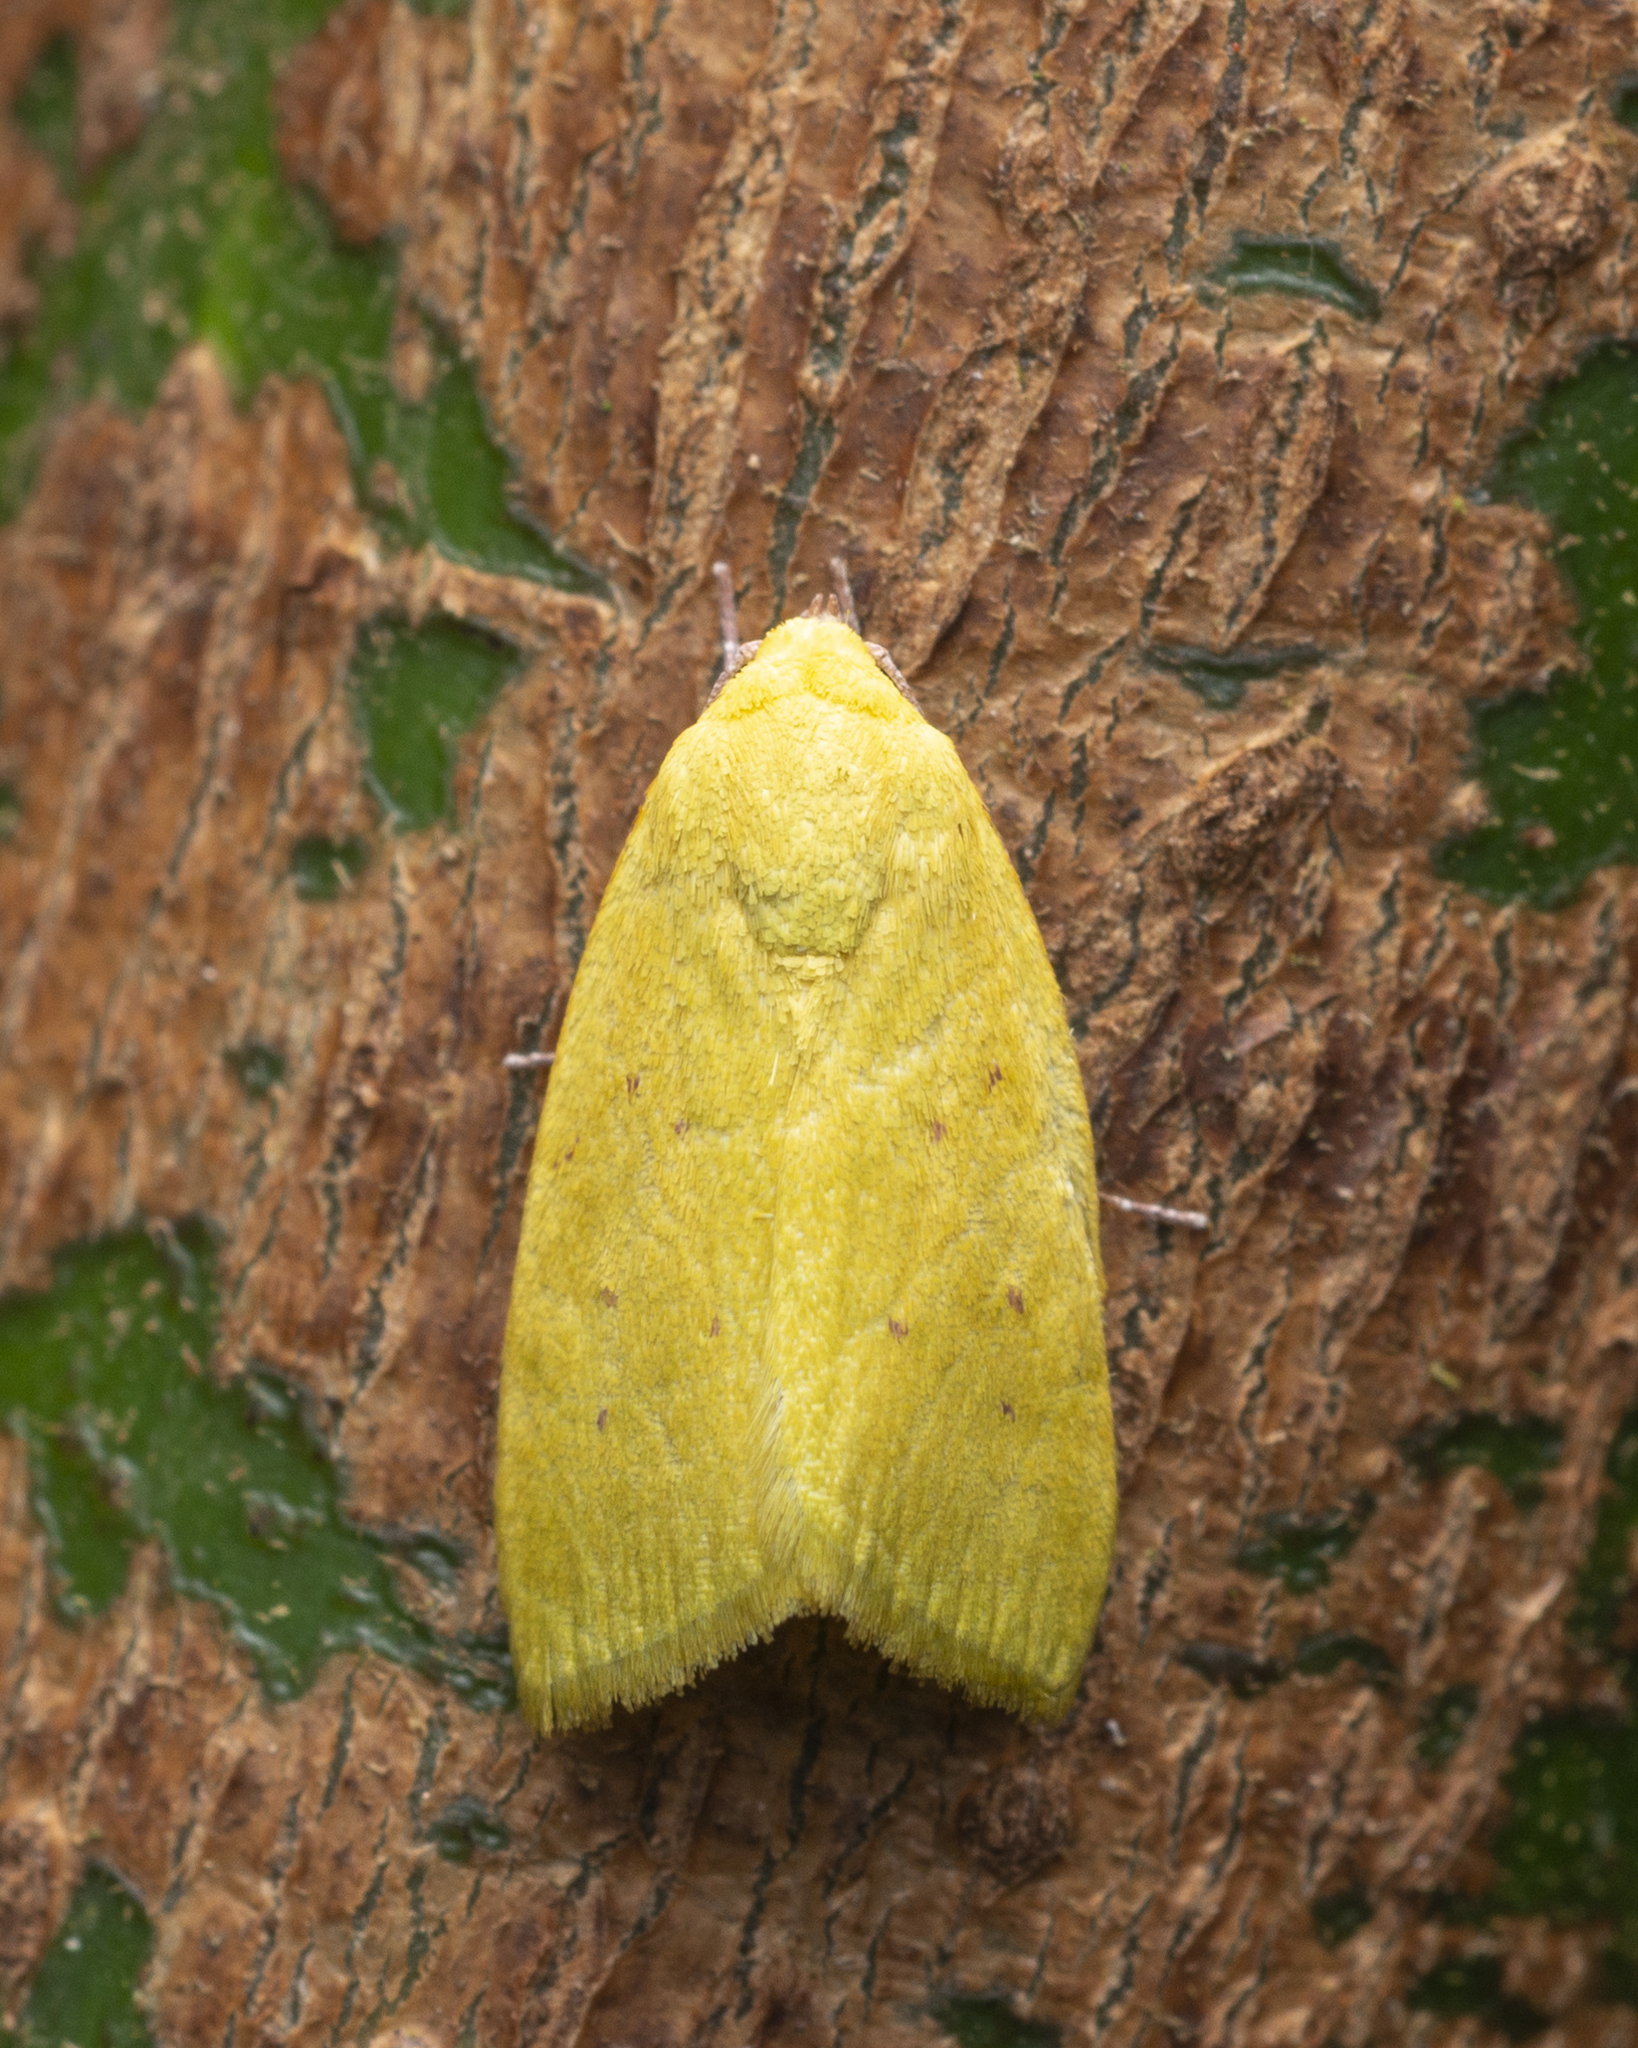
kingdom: Animalia
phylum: Arthropoda
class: Insecta
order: Lepidoptera
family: Nolidae
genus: Earias
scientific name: Earias flavida
